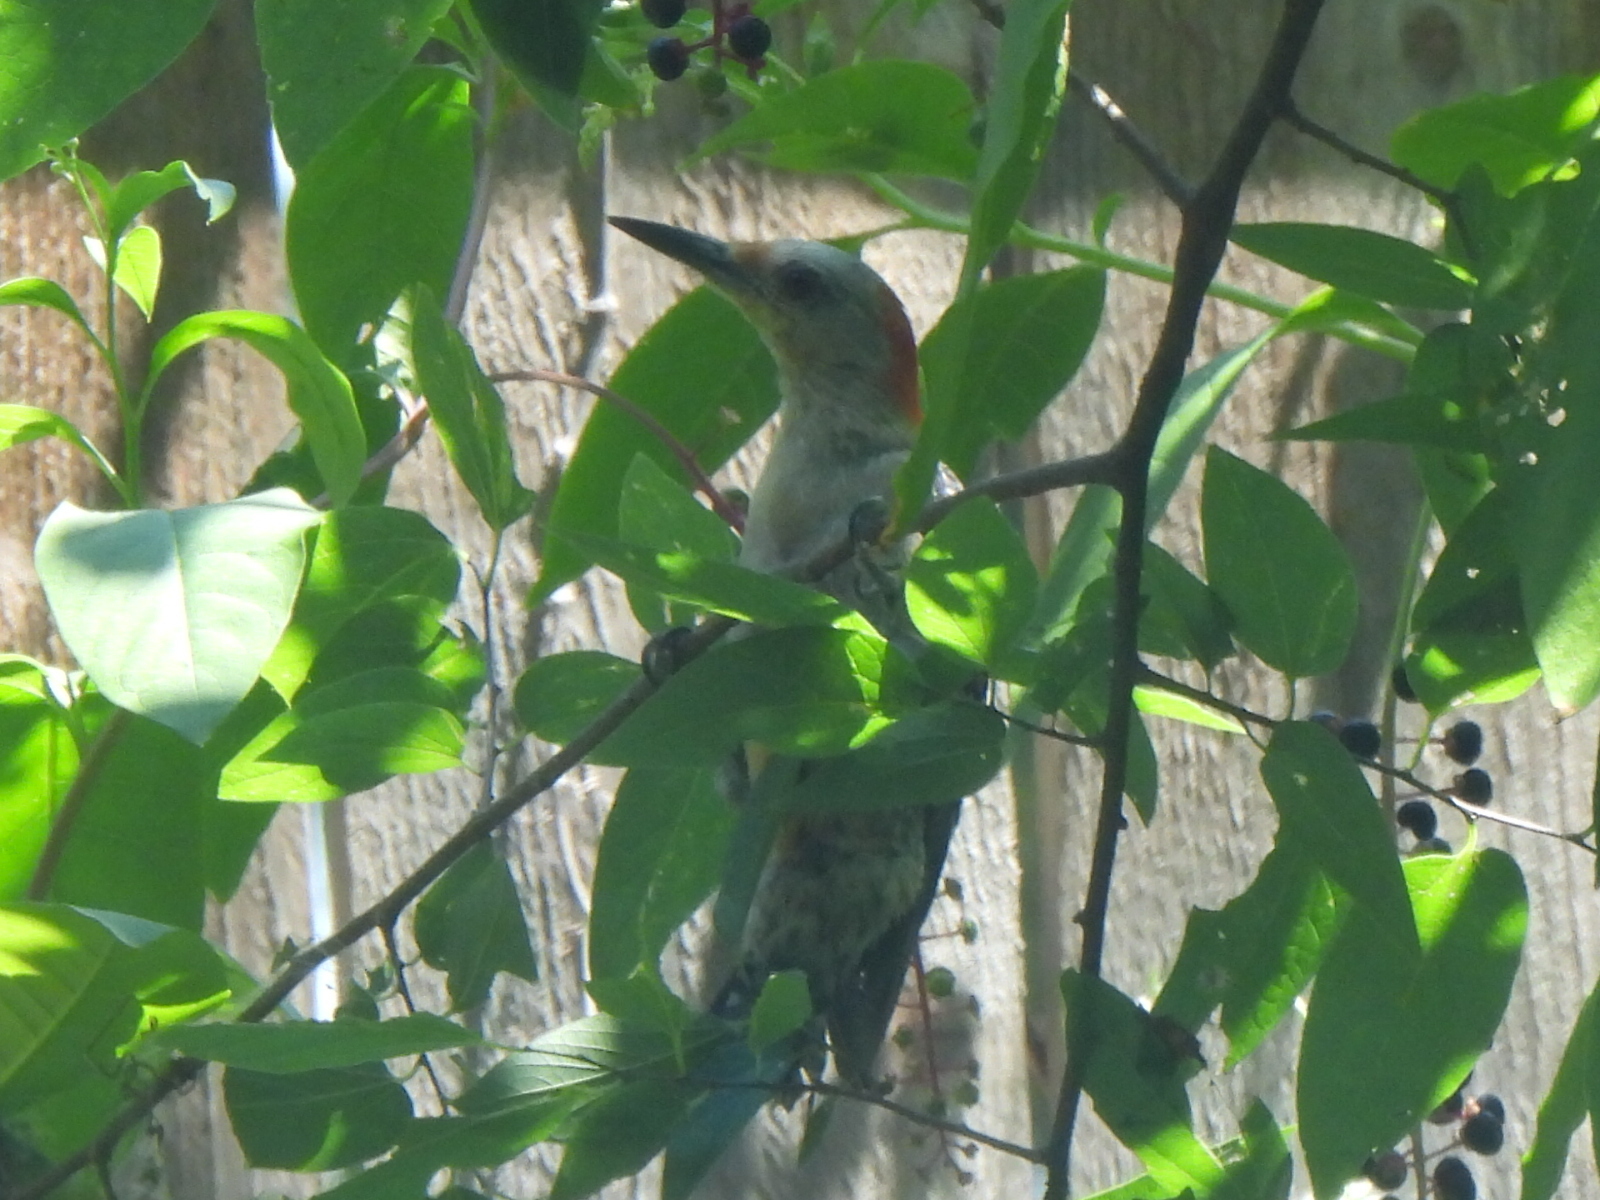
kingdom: Animalia
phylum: Chordata
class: Aves
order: Piciformes
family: Picidae
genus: Melanerpes
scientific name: Melanerpes carolinus
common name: Red-bellied woodpecker
